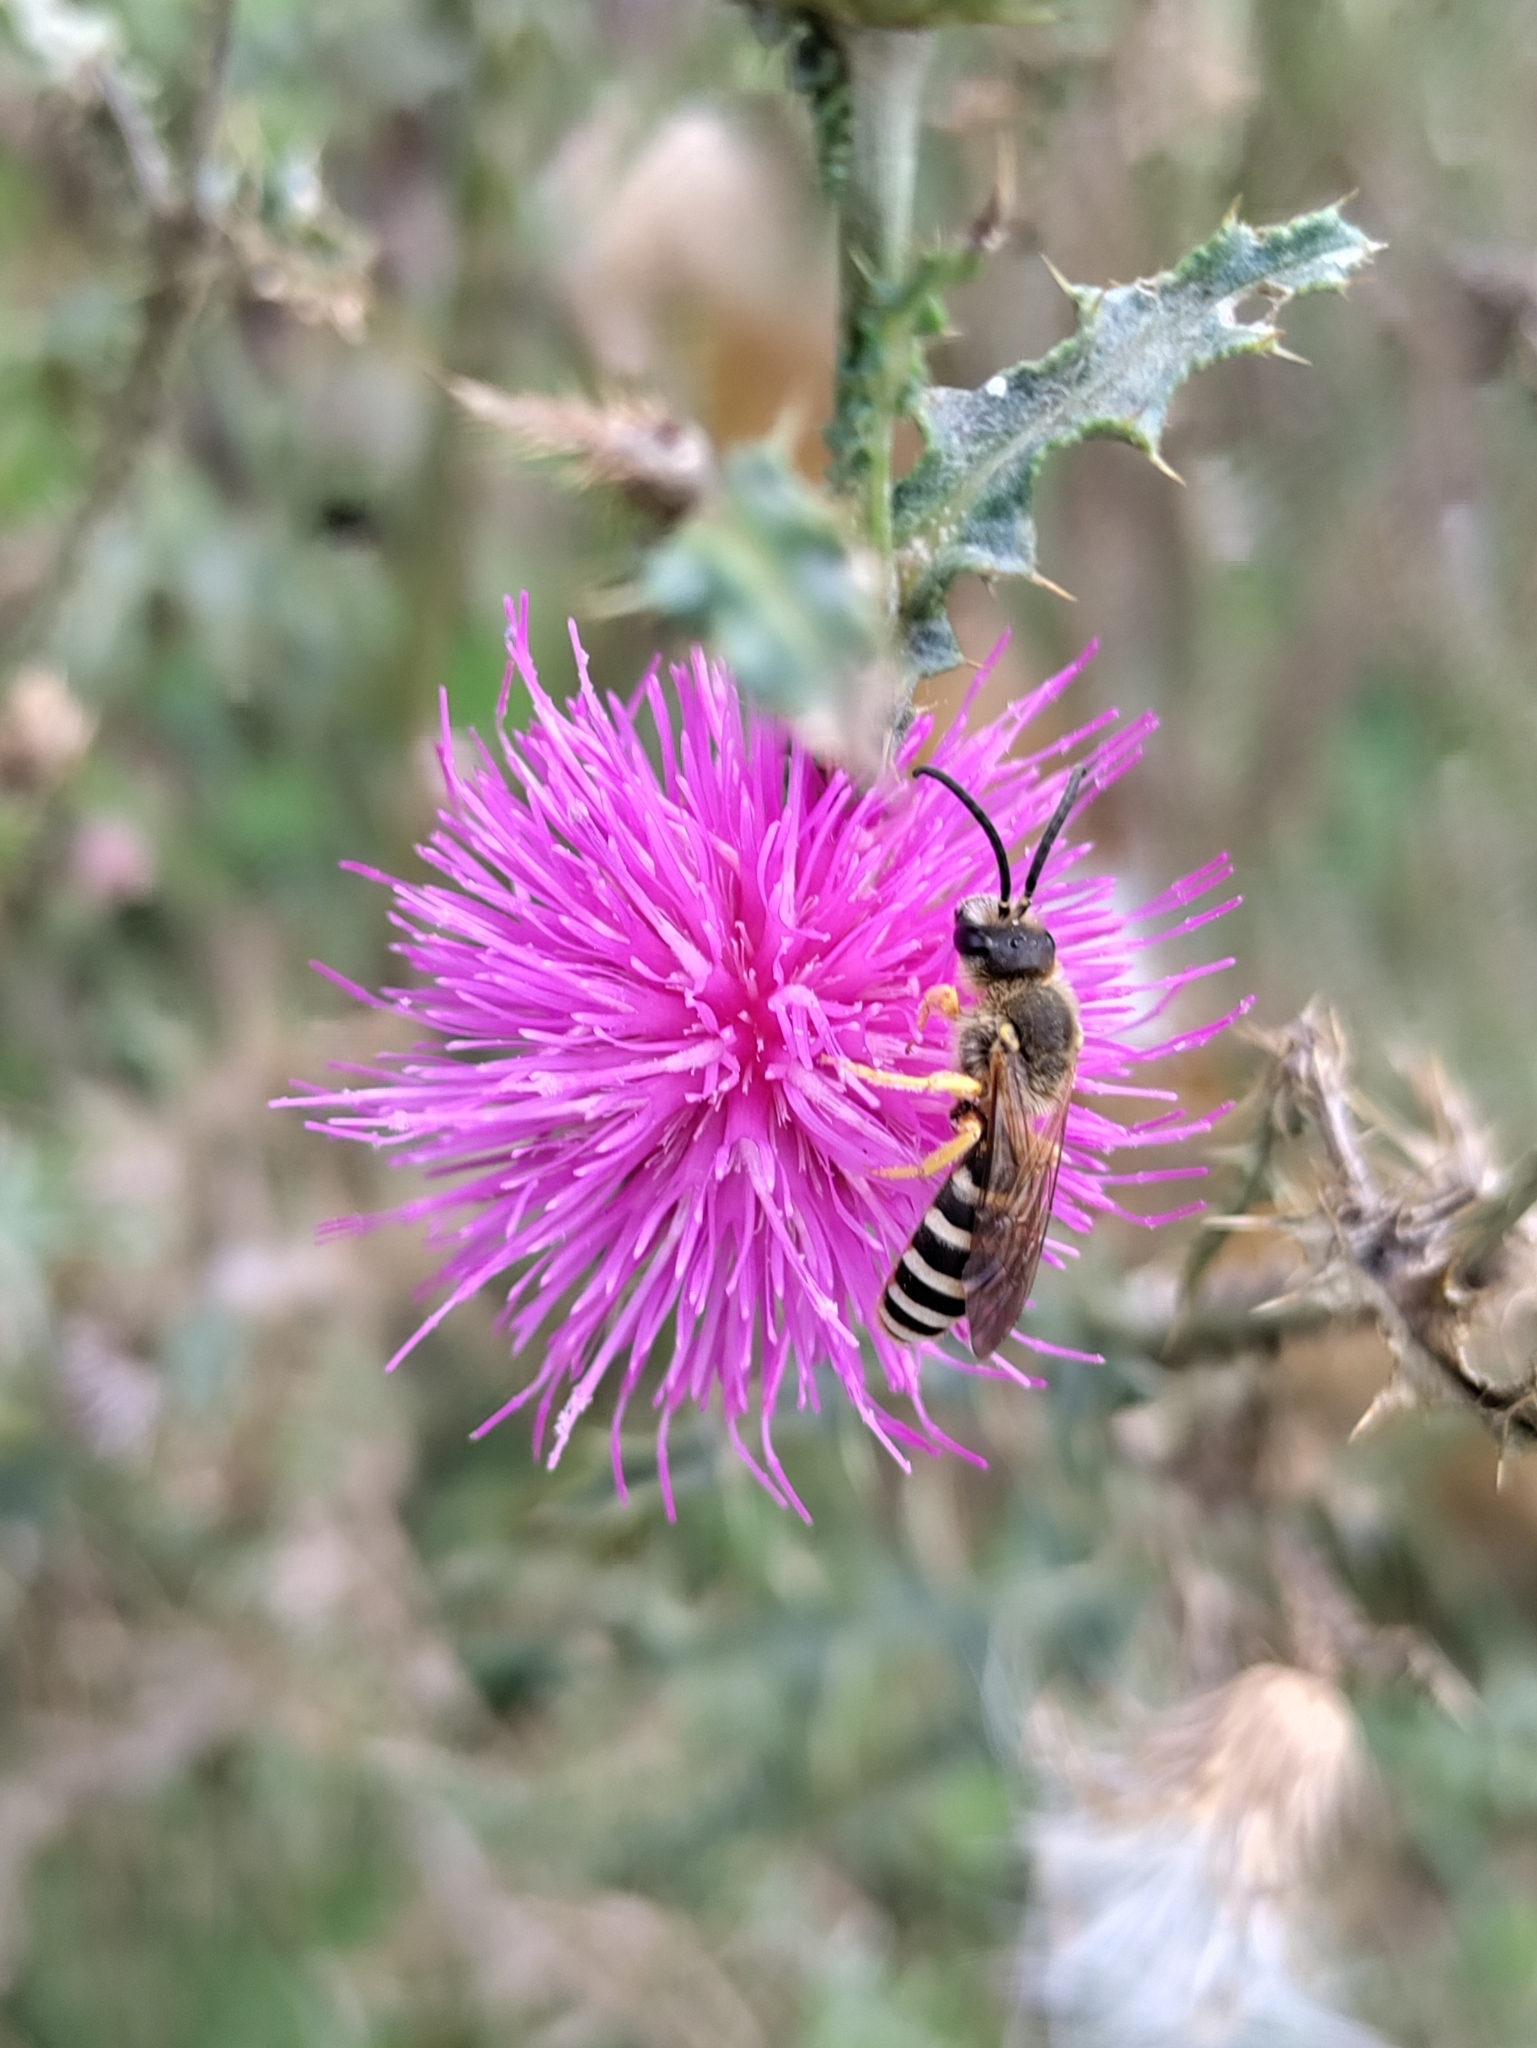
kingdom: Animalia
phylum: Arthropoda
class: Insecta
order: Hymenoptera
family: Halictidae
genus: Halictus
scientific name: Halictus scabiosae
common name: Great banded furrow bee
